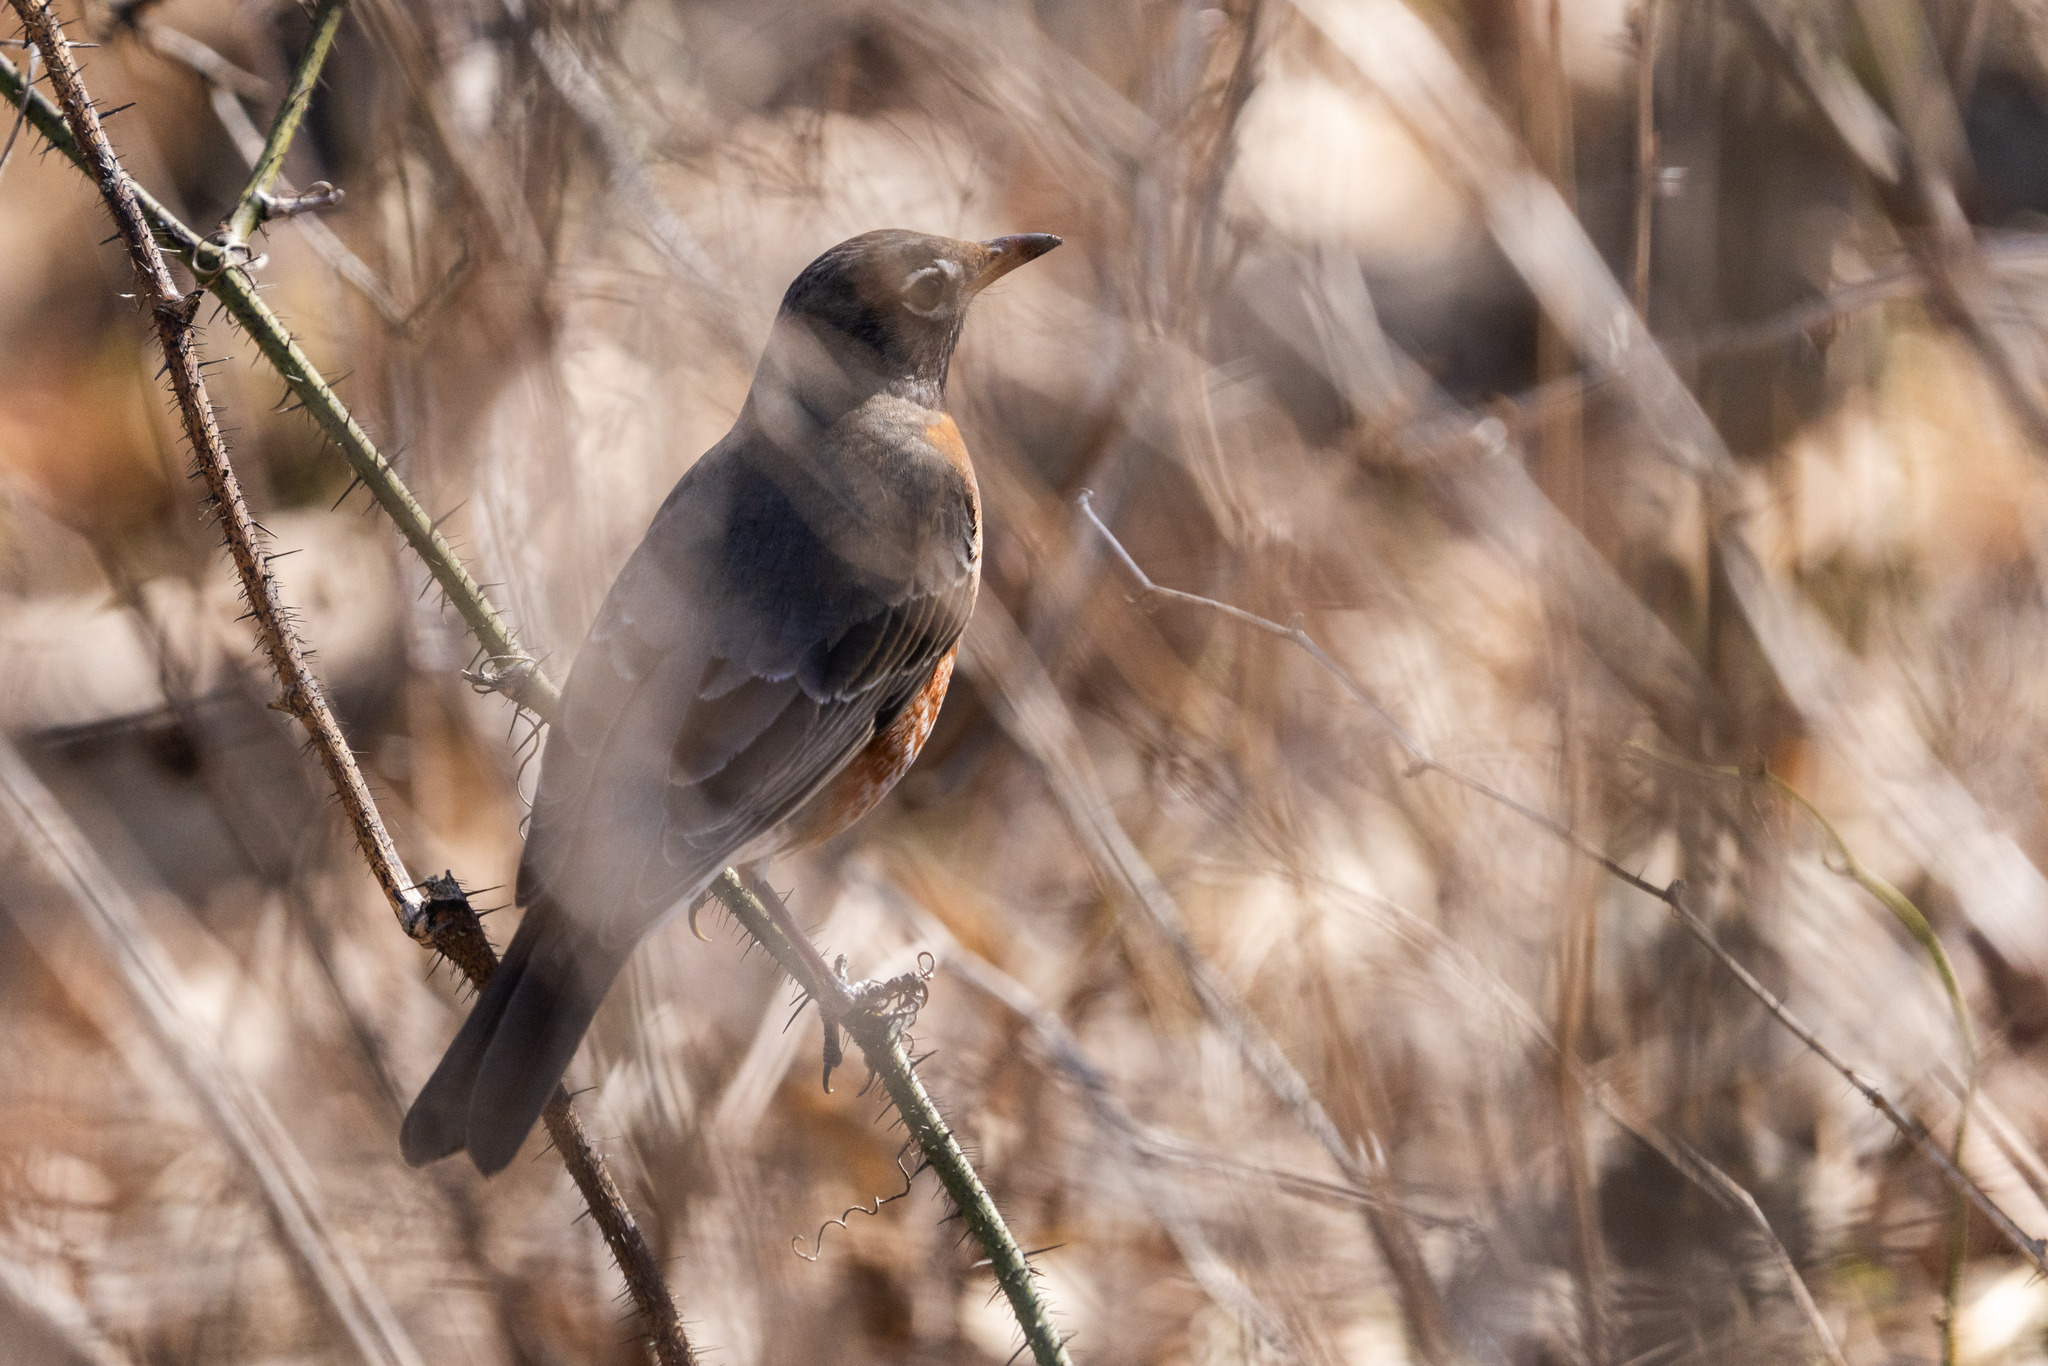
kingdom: Animalia
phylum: Chordata
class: Aves
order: Passeriformes
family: Turdidae
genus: Turdus
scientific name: Turdus migratorius
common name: American robin
